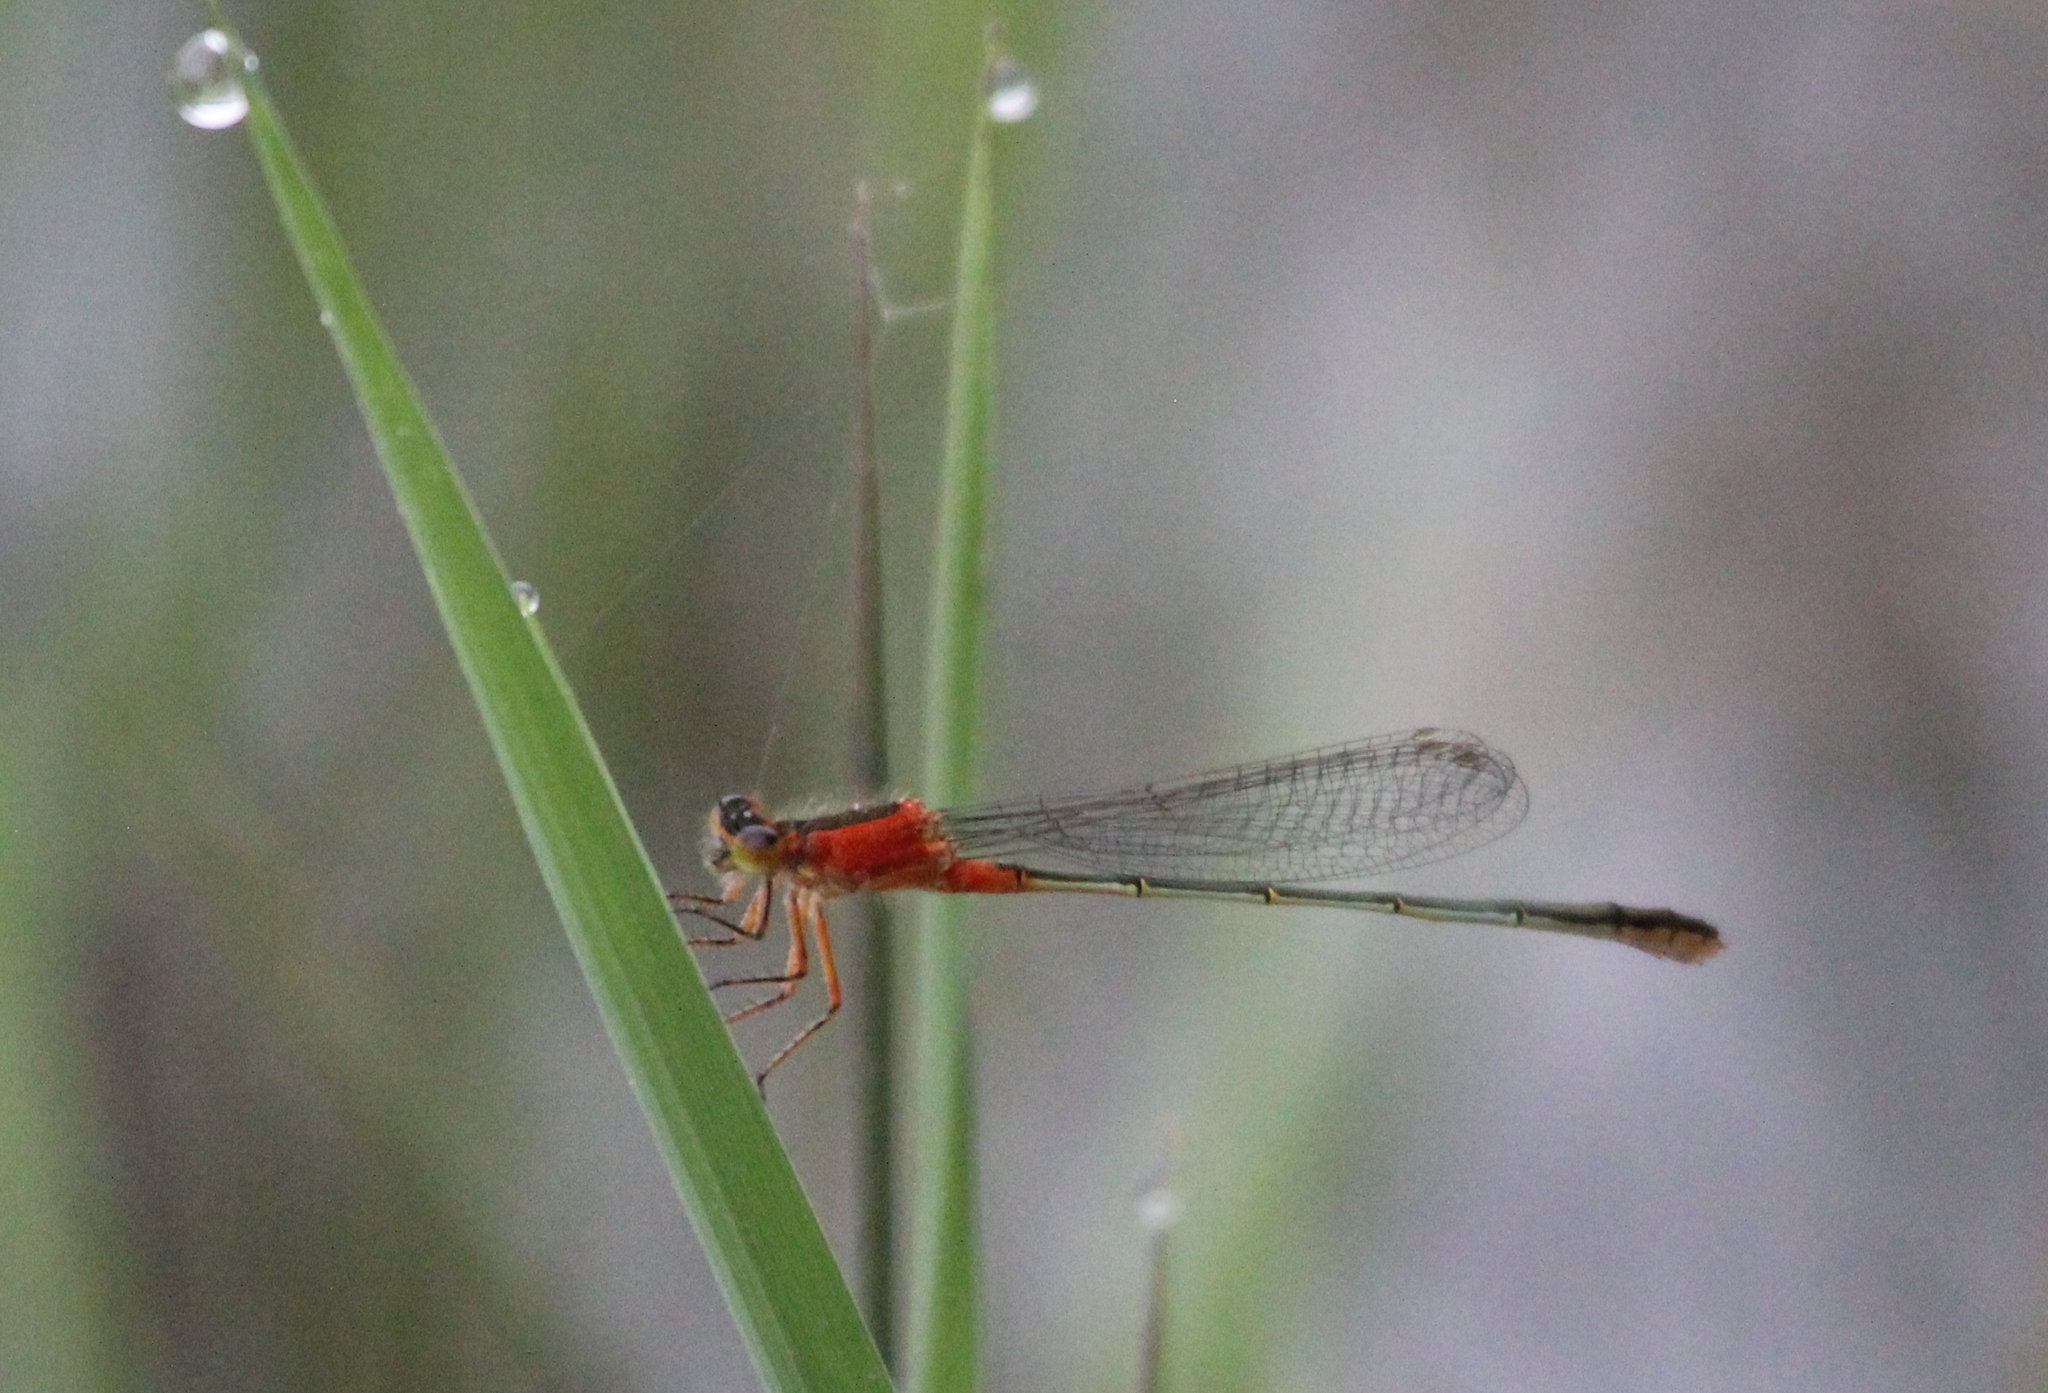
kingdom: Animalia
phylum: Arthropoda
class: Insecta
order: Odonata
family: Coenagrionidae
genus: Ischnura
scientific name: Ischnura ramburii
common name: Rambur's forktail
